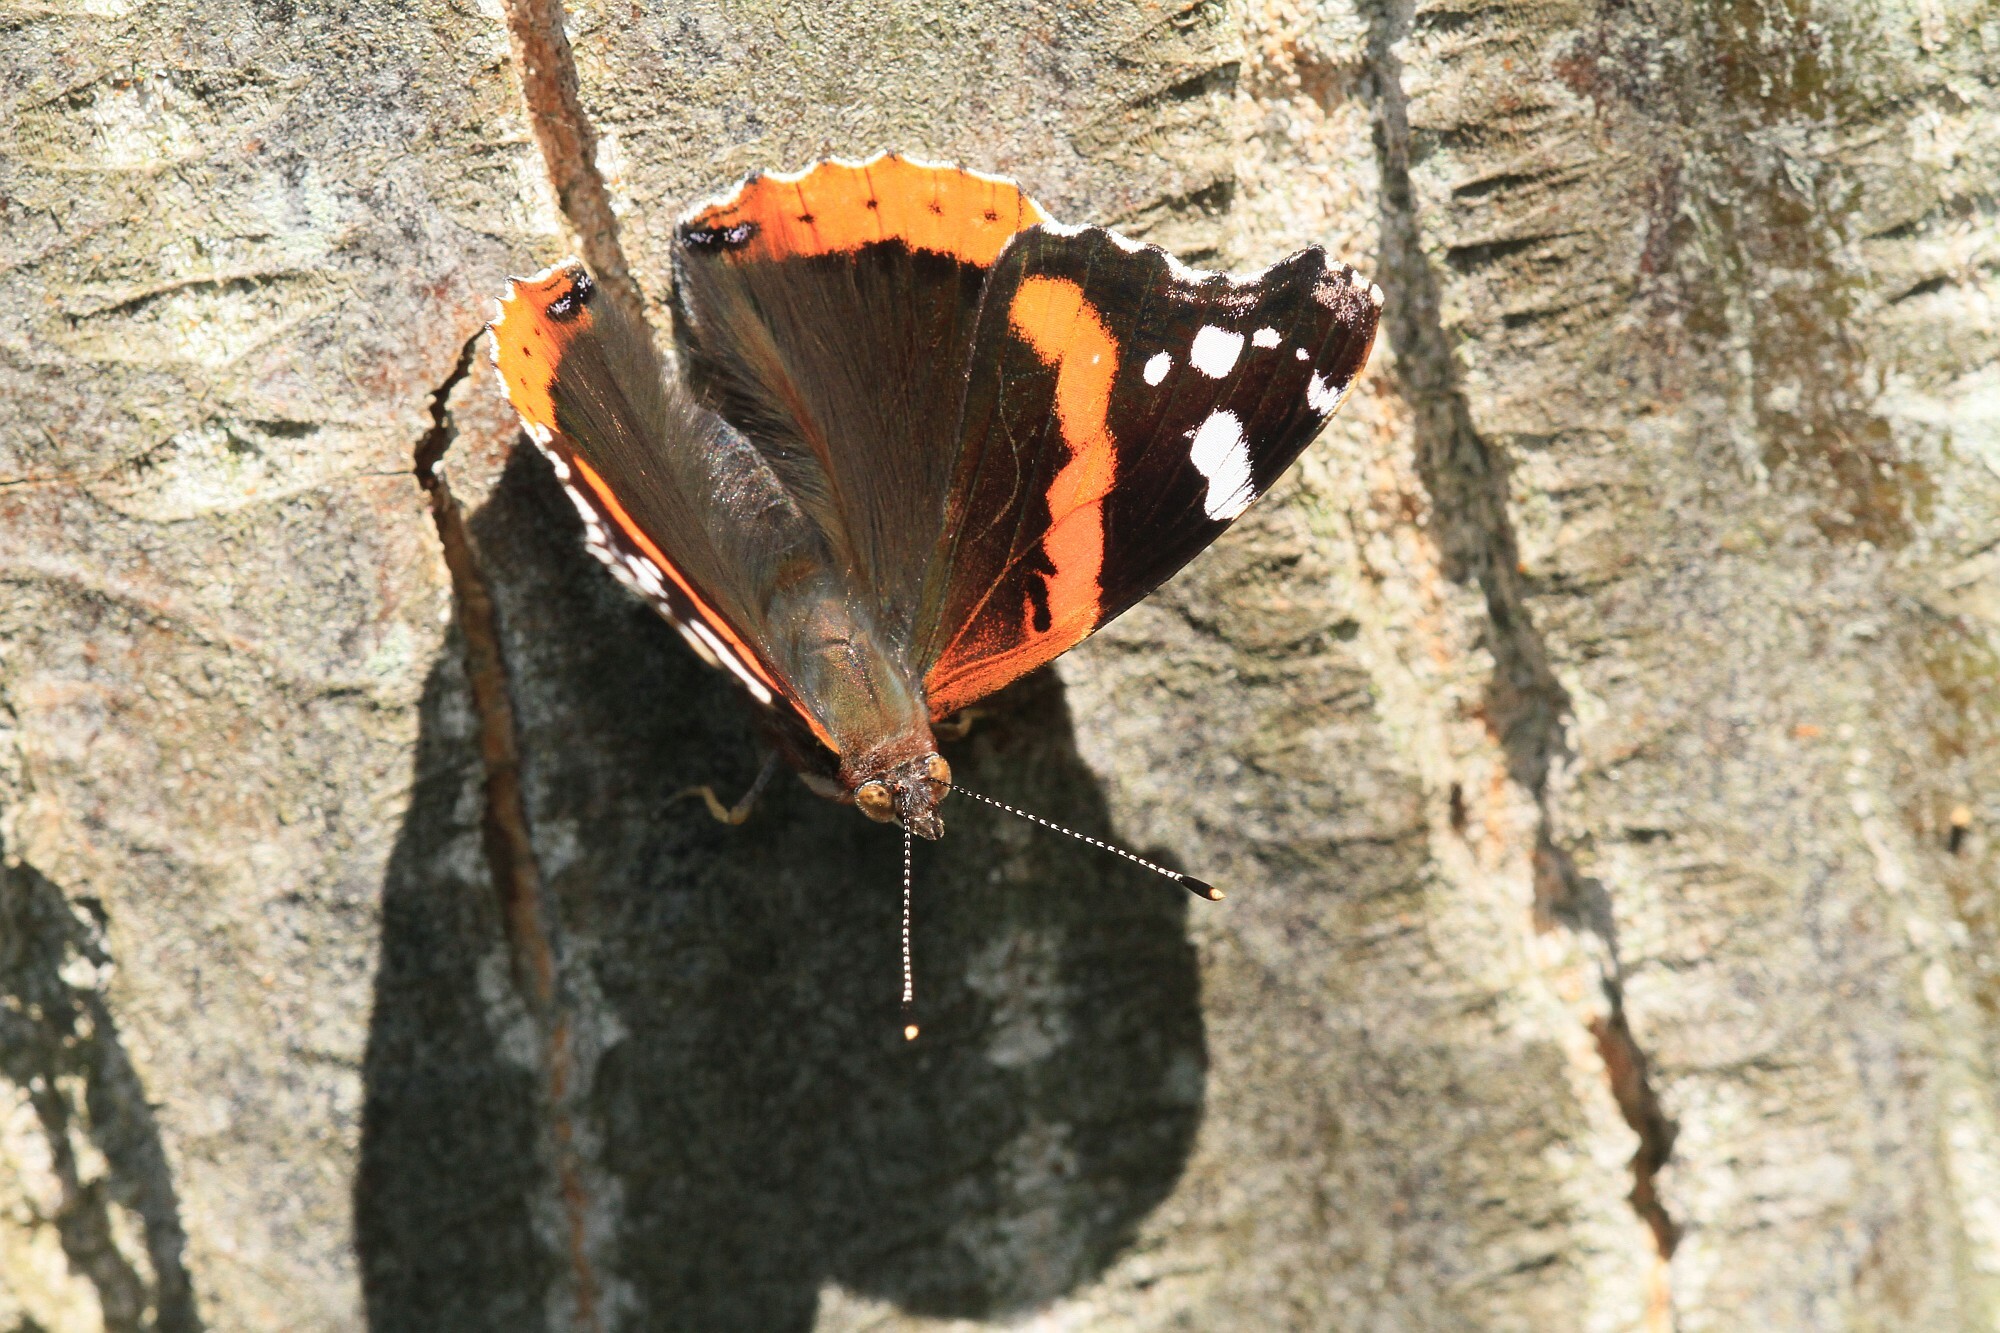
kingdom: Animalia
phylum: Arthropoda
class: Insecta
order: Lepidoptera
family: Nymphalidae
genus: Vanessa
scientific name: Vanessa atalanta
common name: Red admiral
